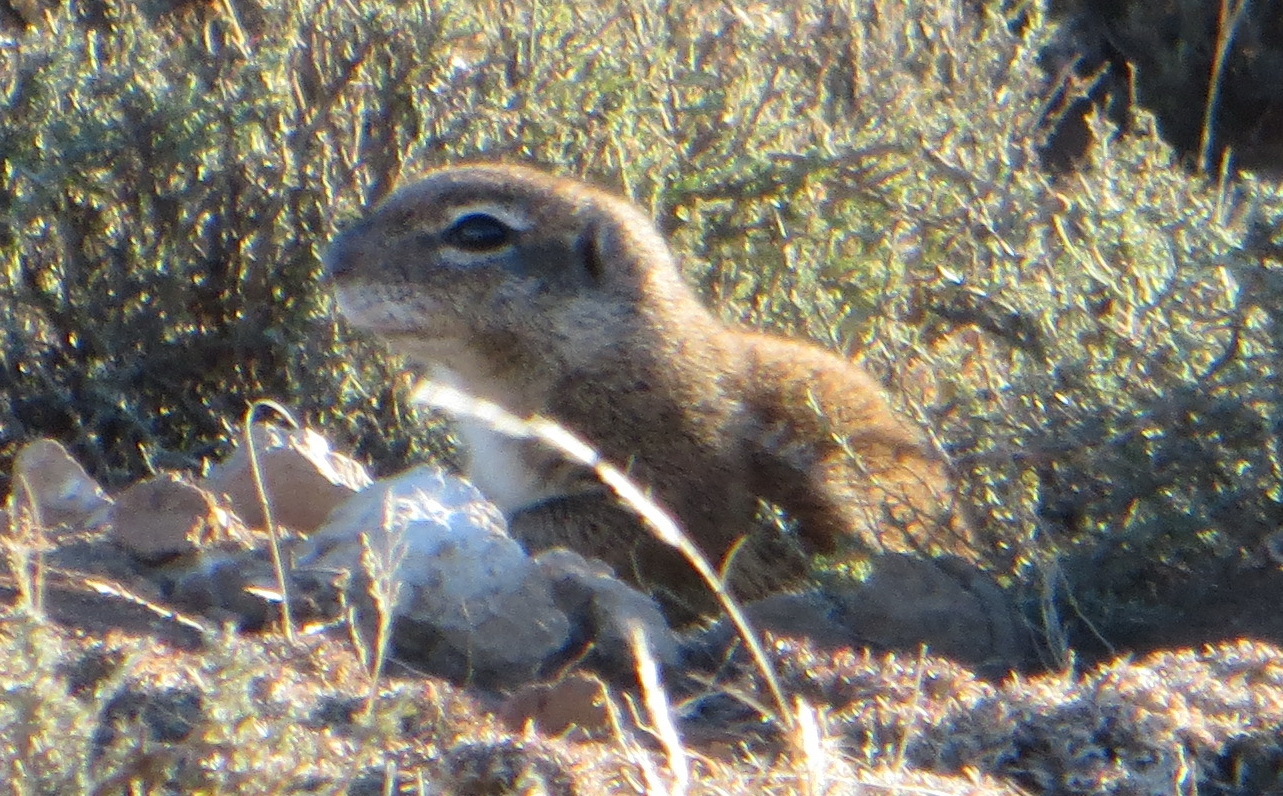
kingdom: Animalia
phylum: Chordata
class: Mammalia
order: Rodentia
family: Sciuridae
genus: Xerus
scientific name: Xerus inauris
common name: South african ground squirrel
